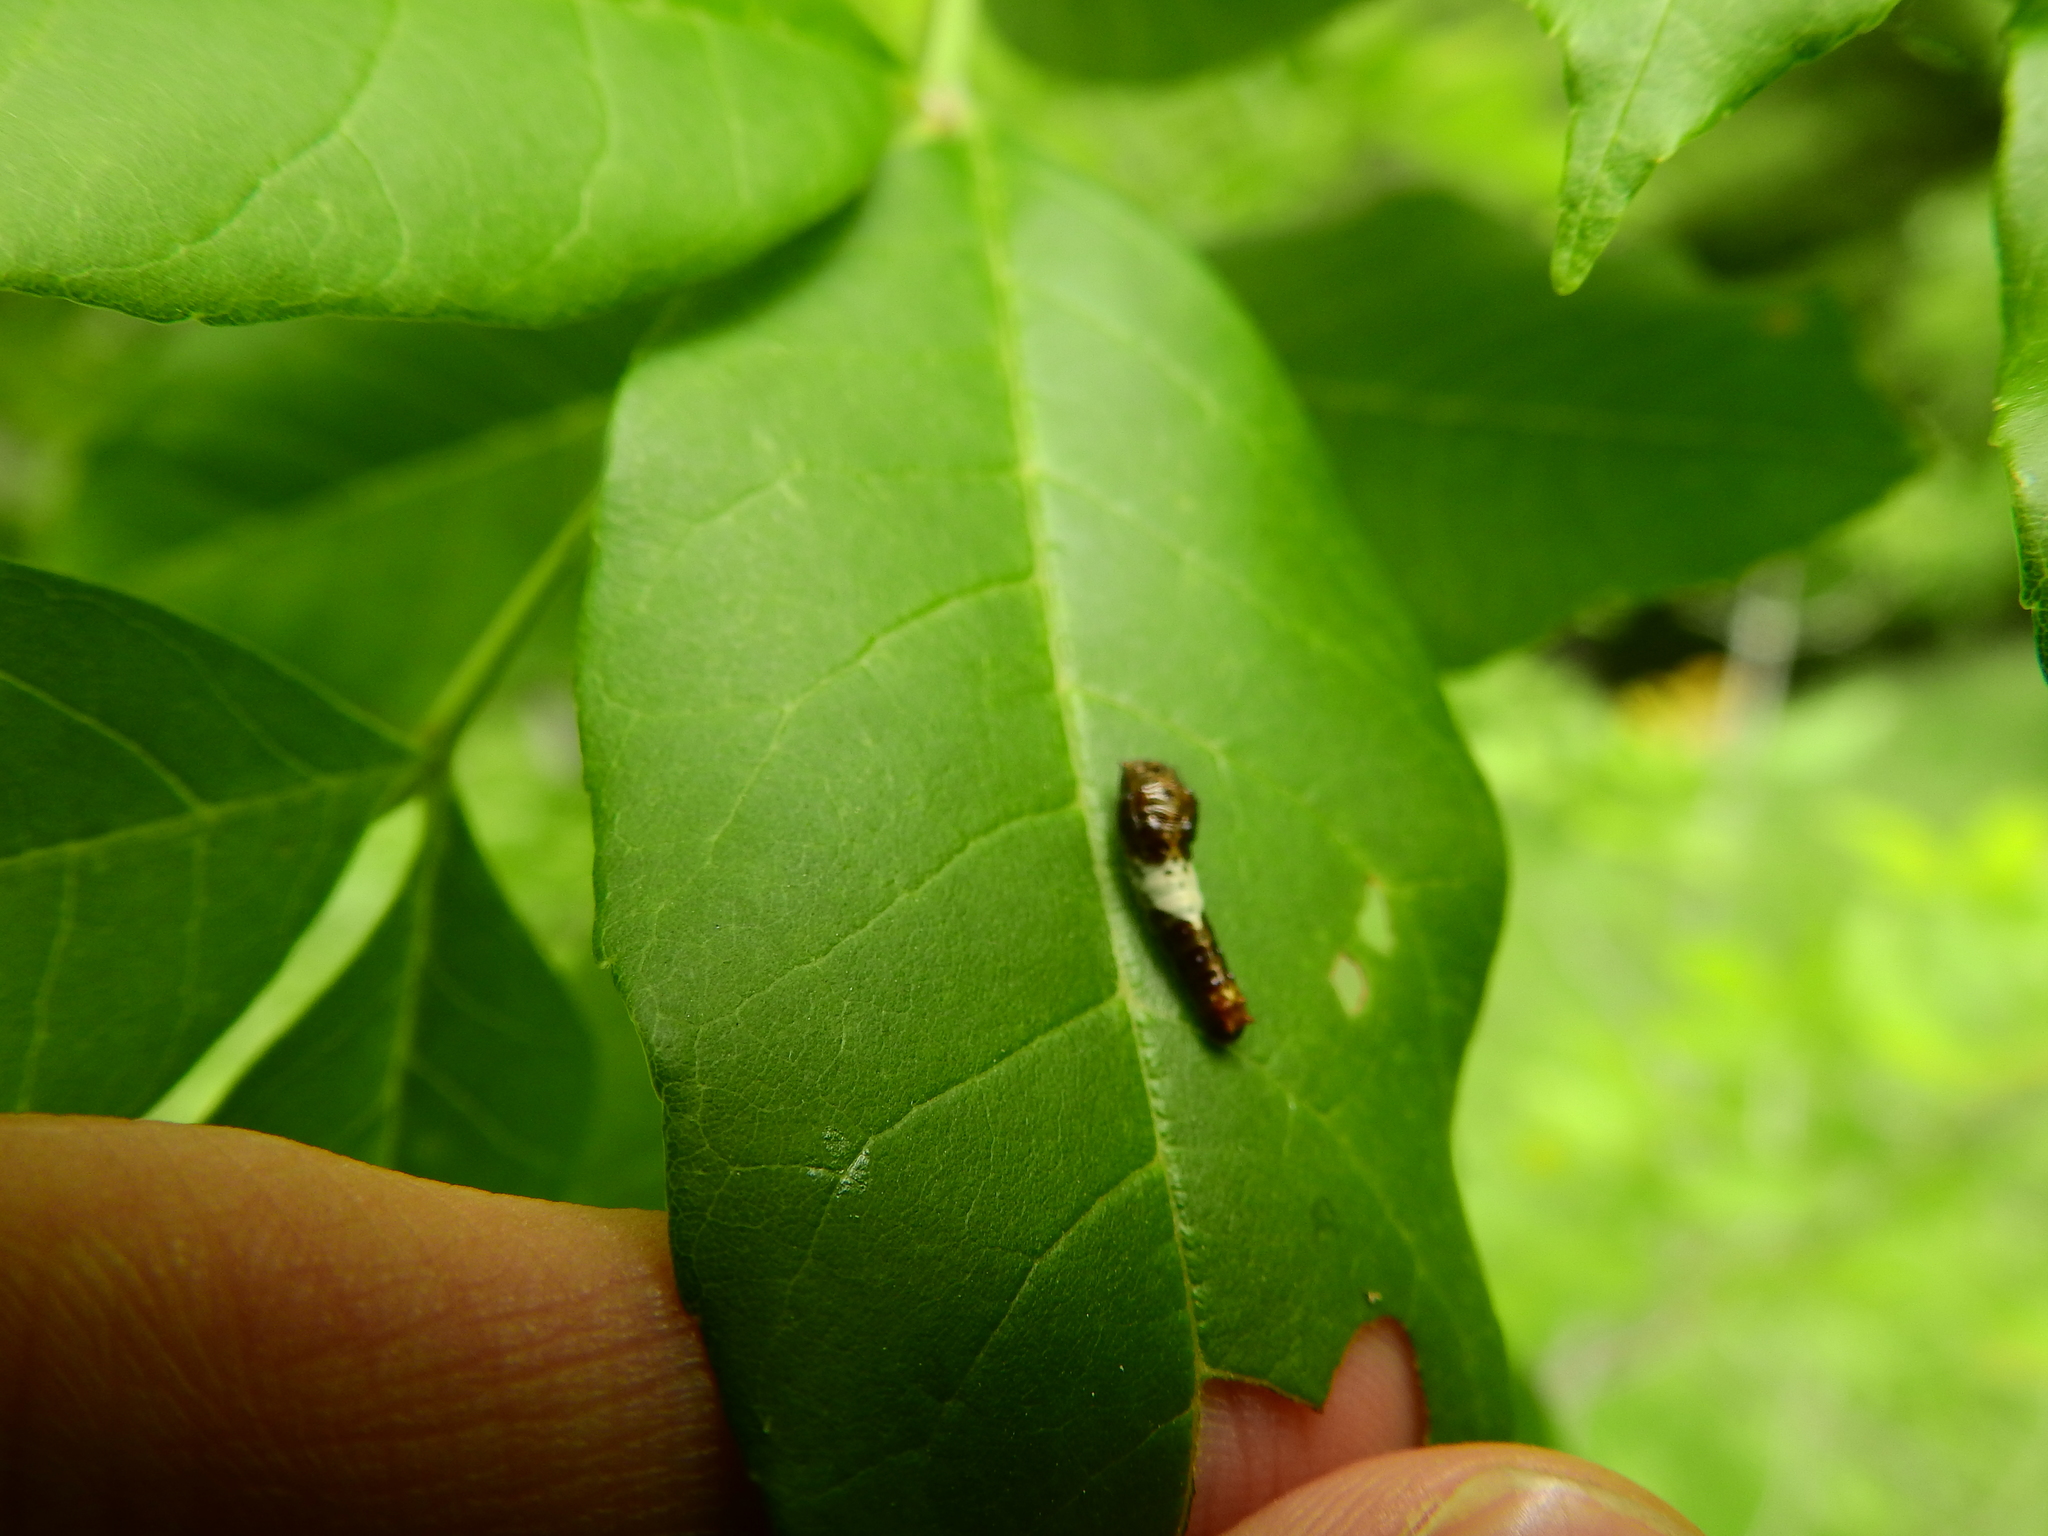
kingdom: Animalia
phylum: Arthropoda
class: Insecta
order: Lepidoptera
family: Papilionidae
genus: Papilio
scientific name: Papilio glaucus
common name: Tiger swallowtail
